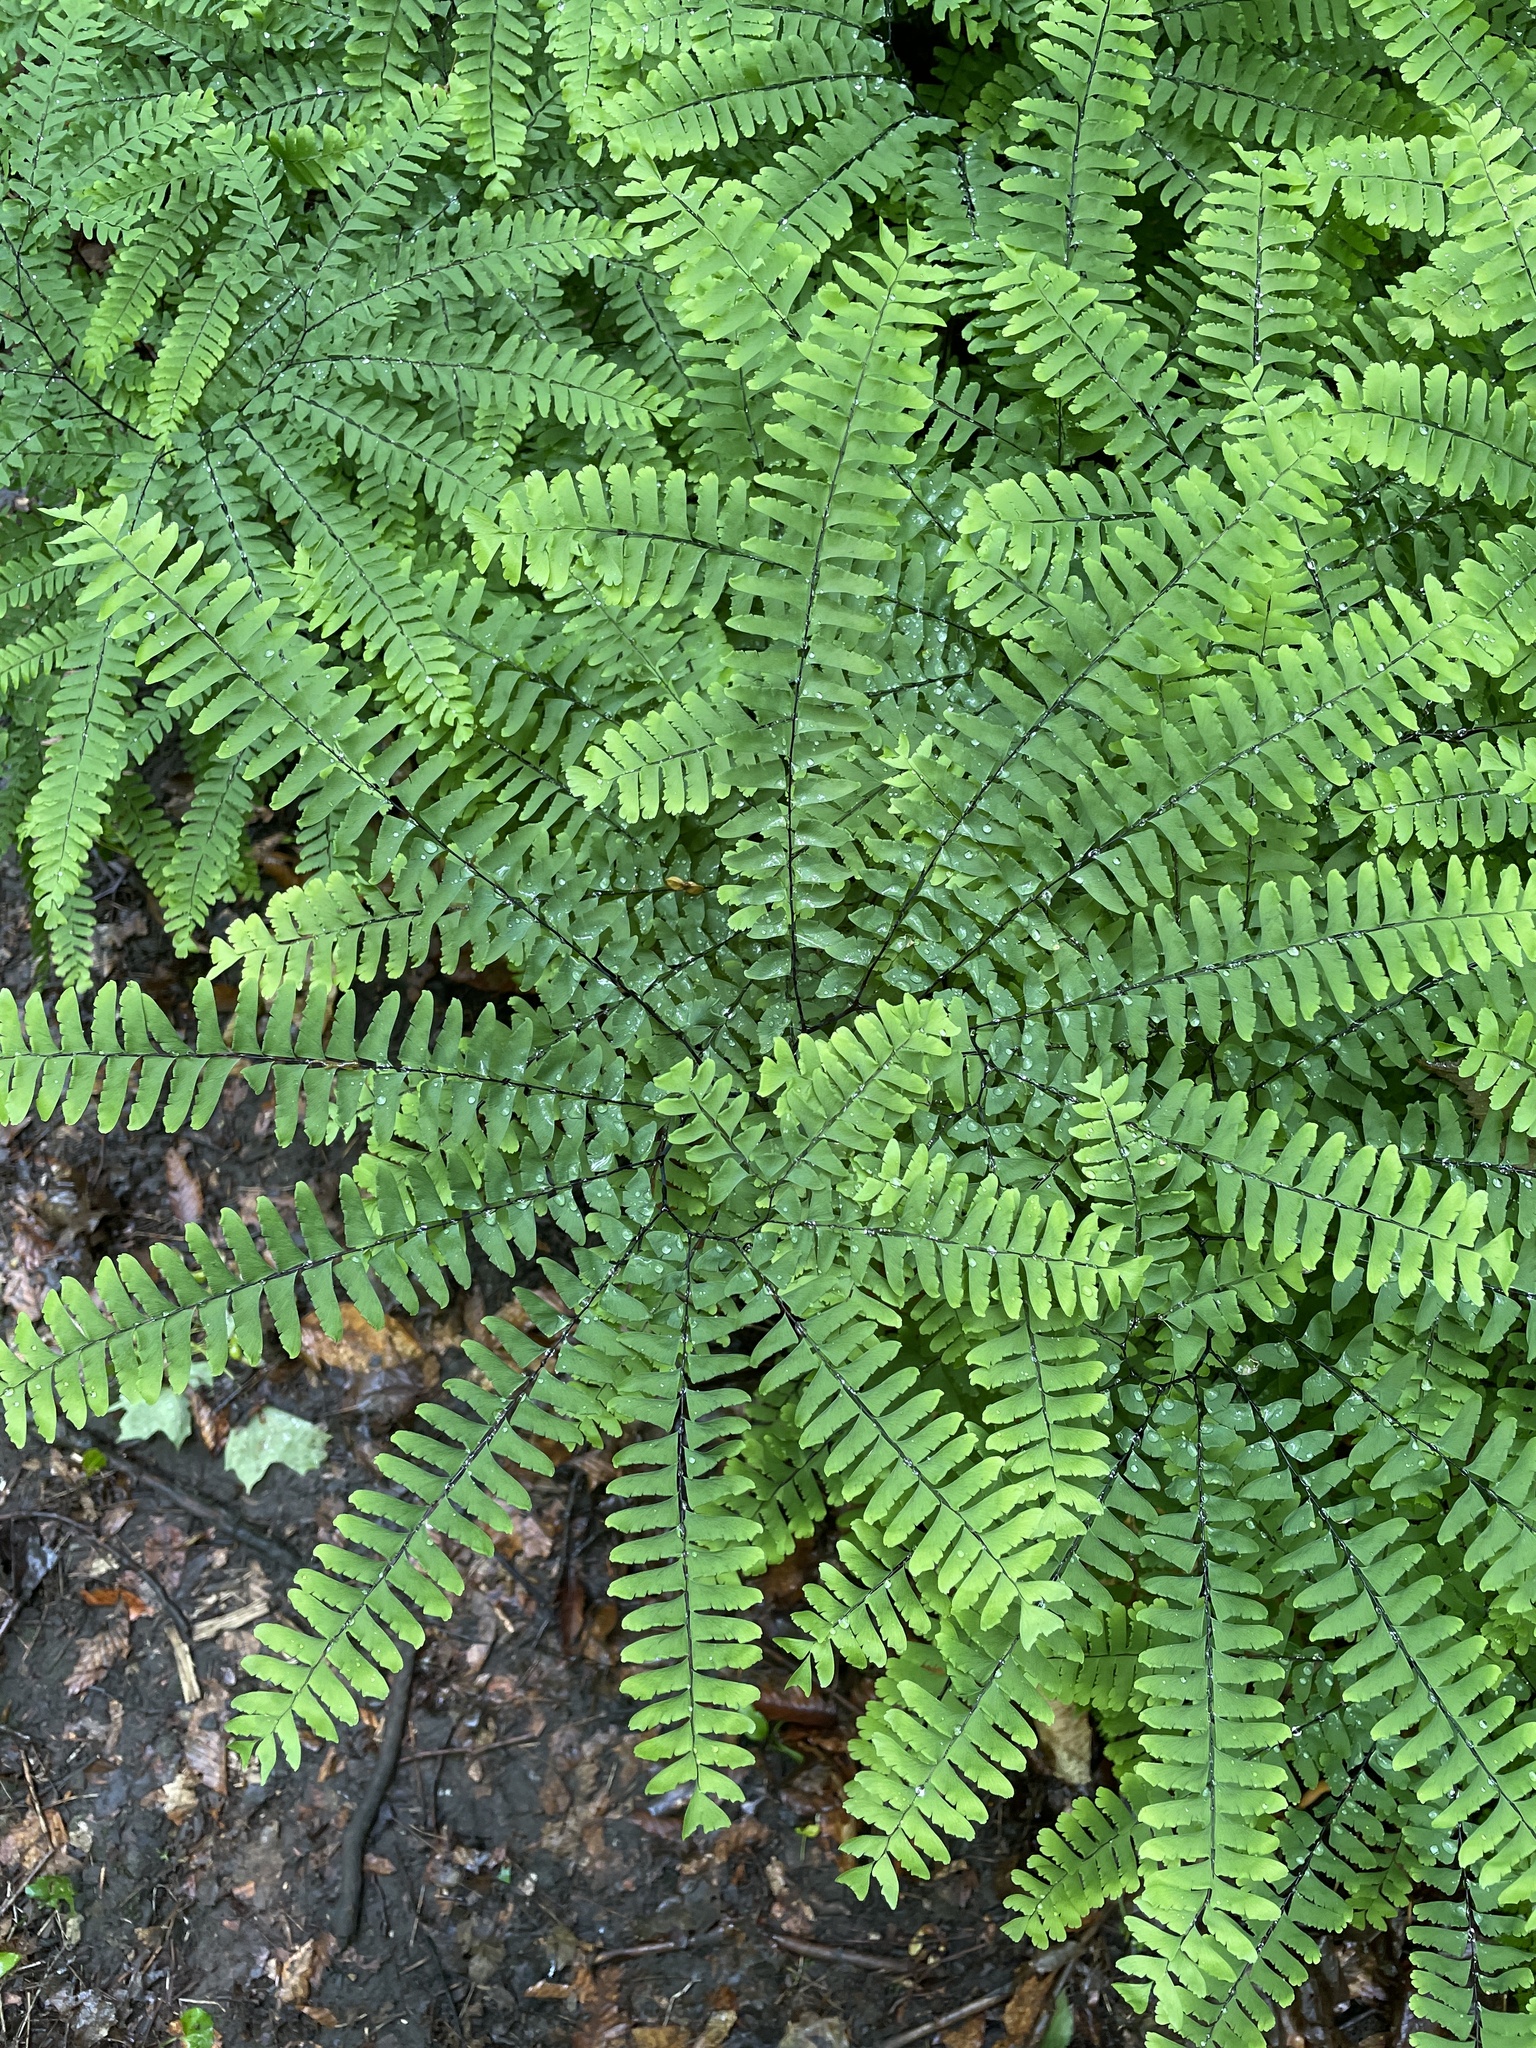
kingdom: Plantae
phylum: Tracheophyta
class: Polypodiopsida
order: Polypodiales
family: Pteridaceae
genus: Adiantum
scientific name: Adiantum pedatum
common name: Five-finger fern
